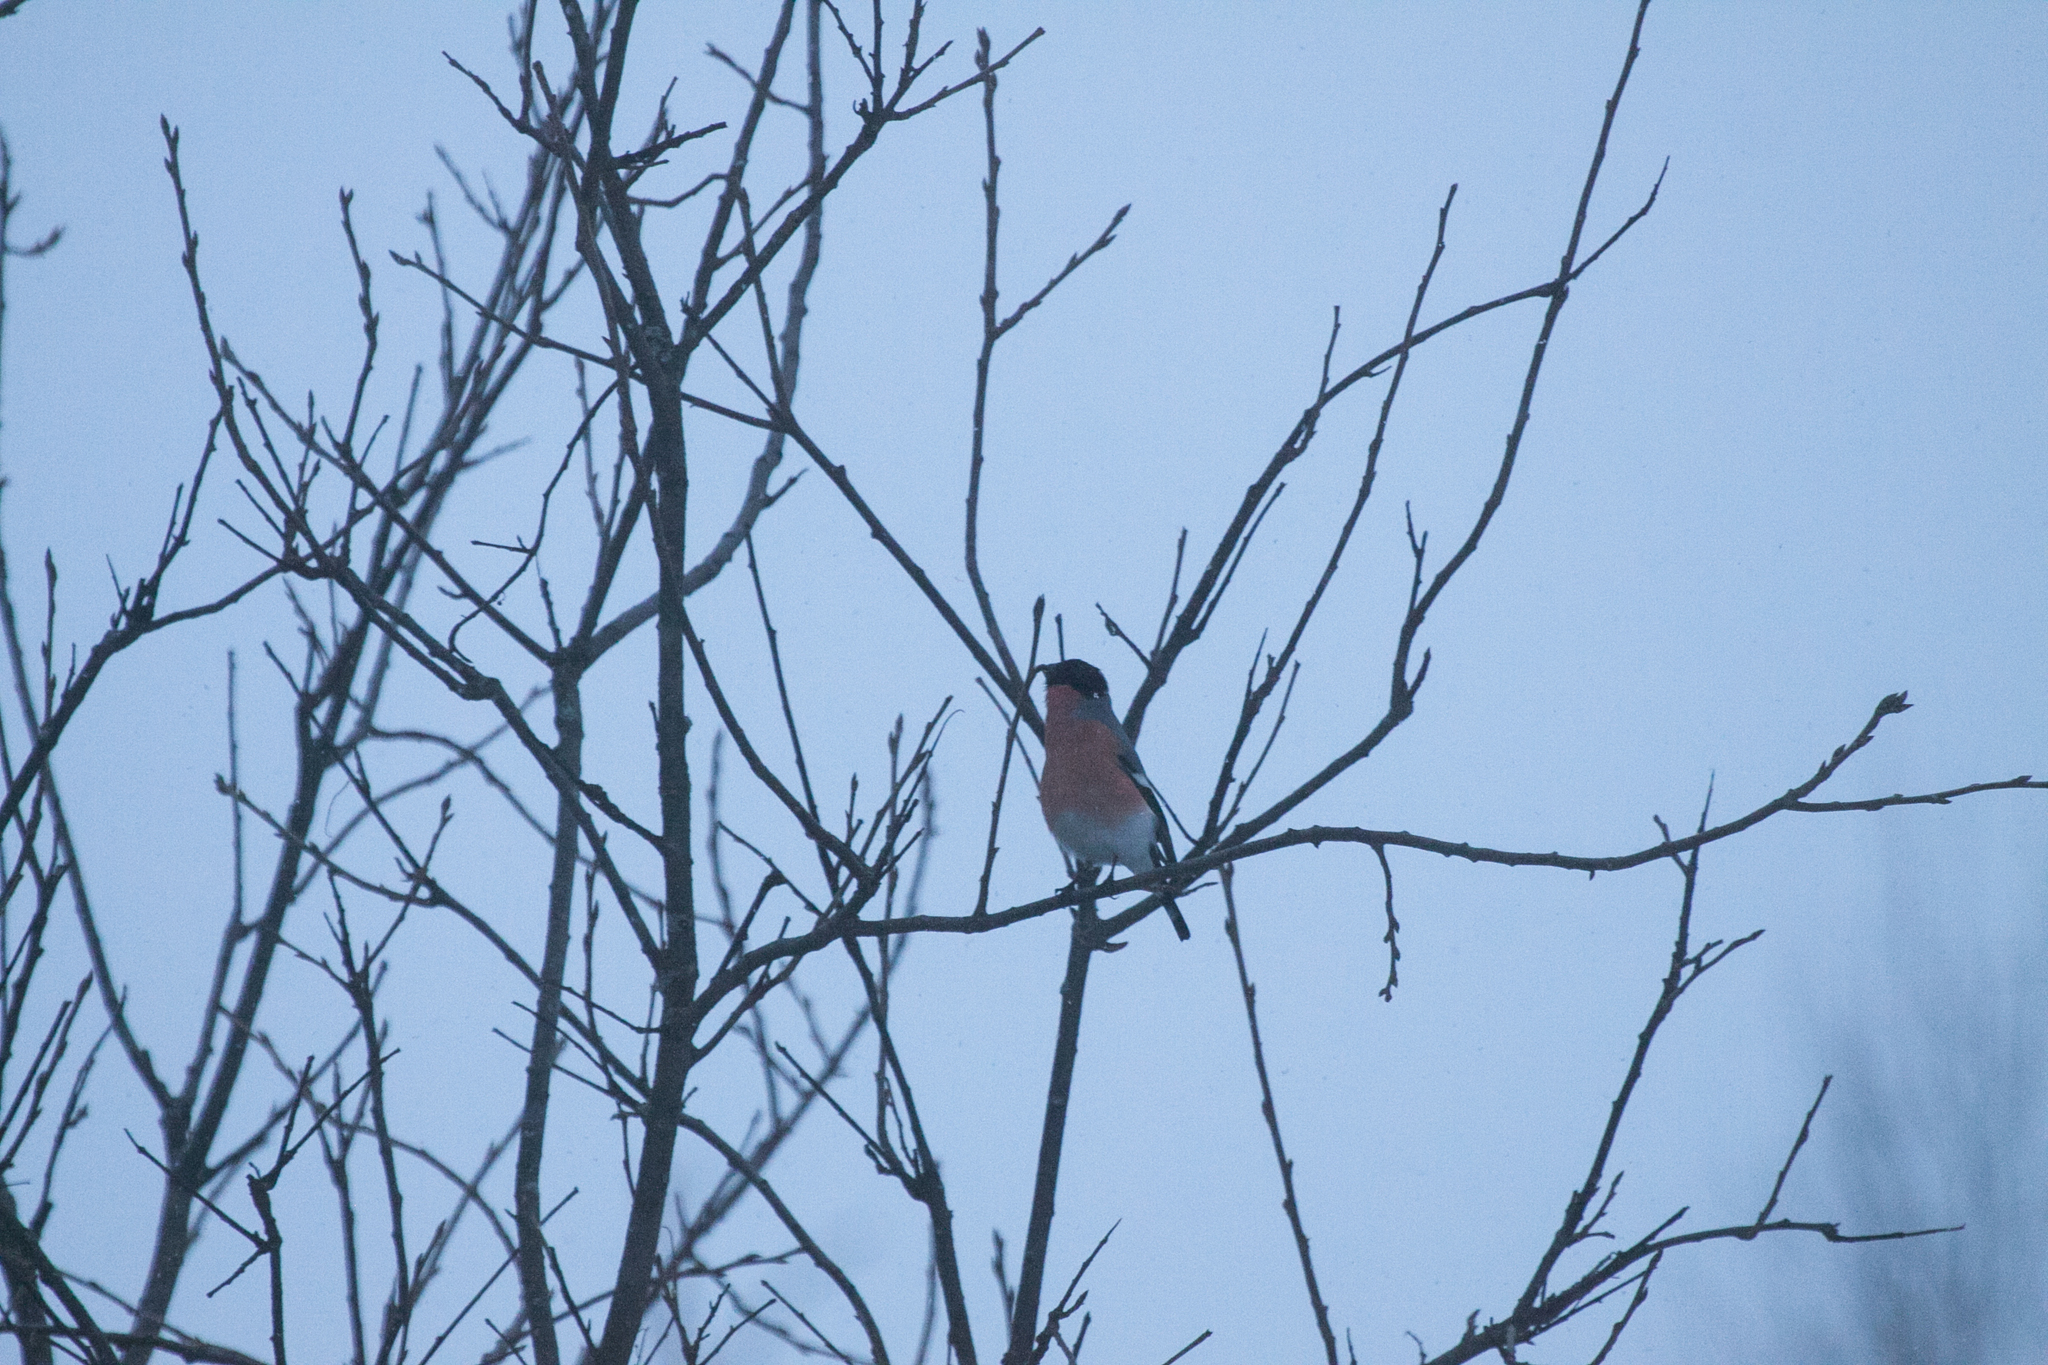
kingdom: Animalia
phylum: Chordata
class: Aves
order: Passeriformes
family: Fringillidae
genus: Pyrrhula
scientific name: Pyrrhula pyrrhula
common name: Eurasian bullfinch
